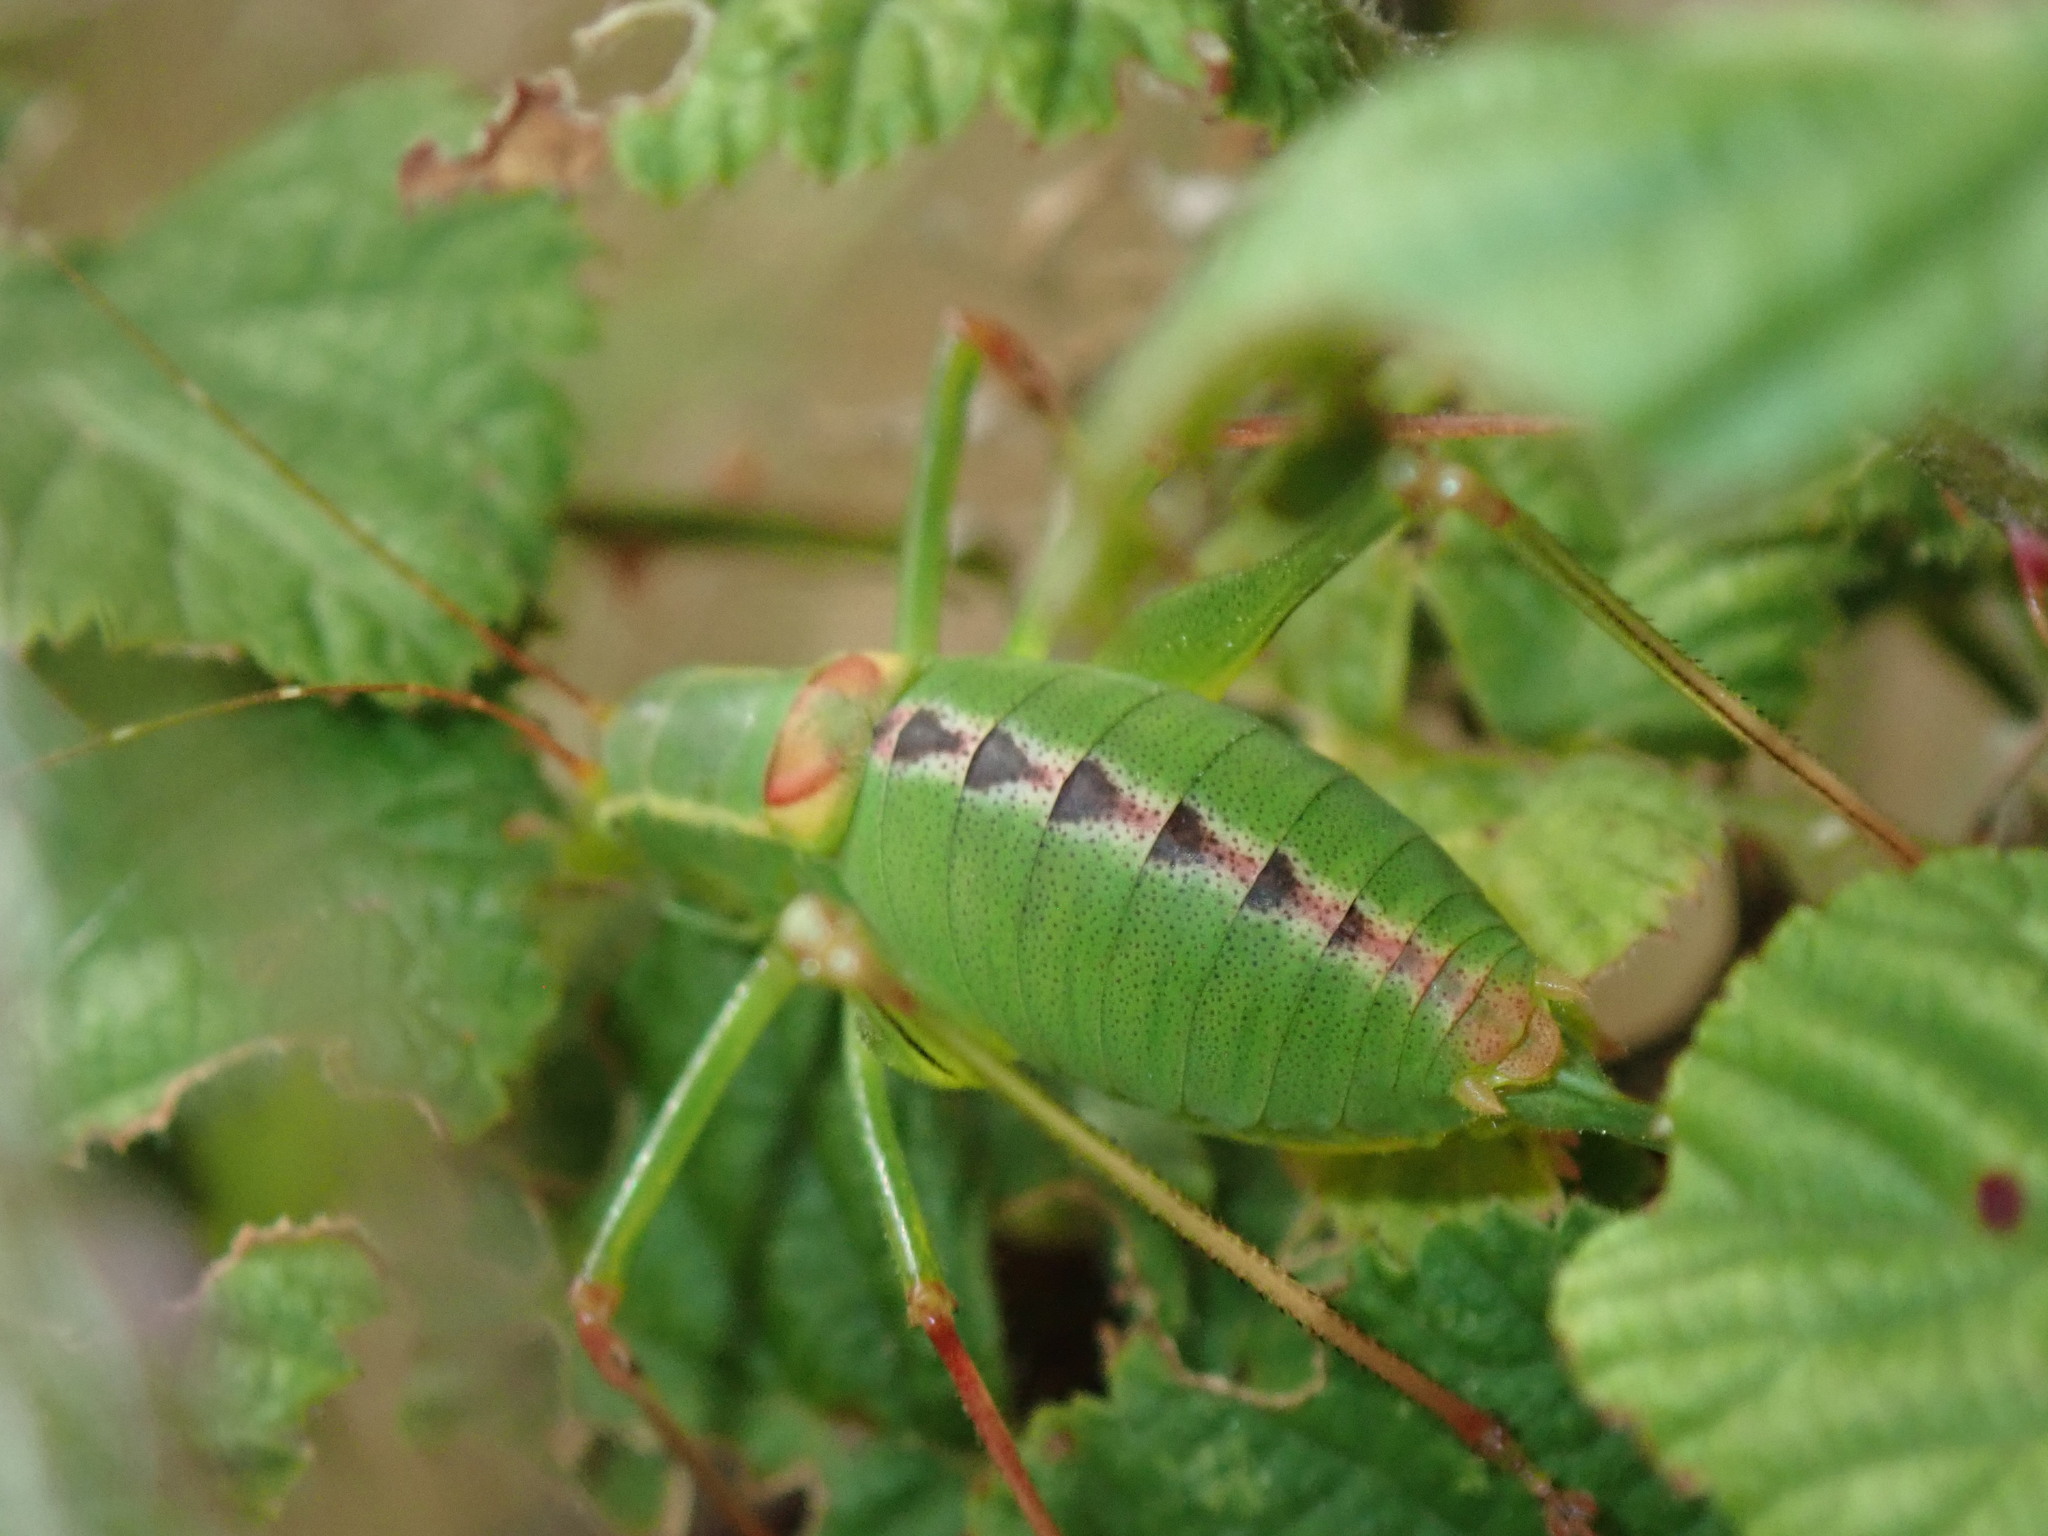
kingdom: Animalia
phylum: Arthropoda
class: Insecta
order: Orthoptera
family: Tettigoniidae
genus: Leptophyes
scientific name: Leptophyes laticauda
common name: Long-tailed speckled bush-cricket
